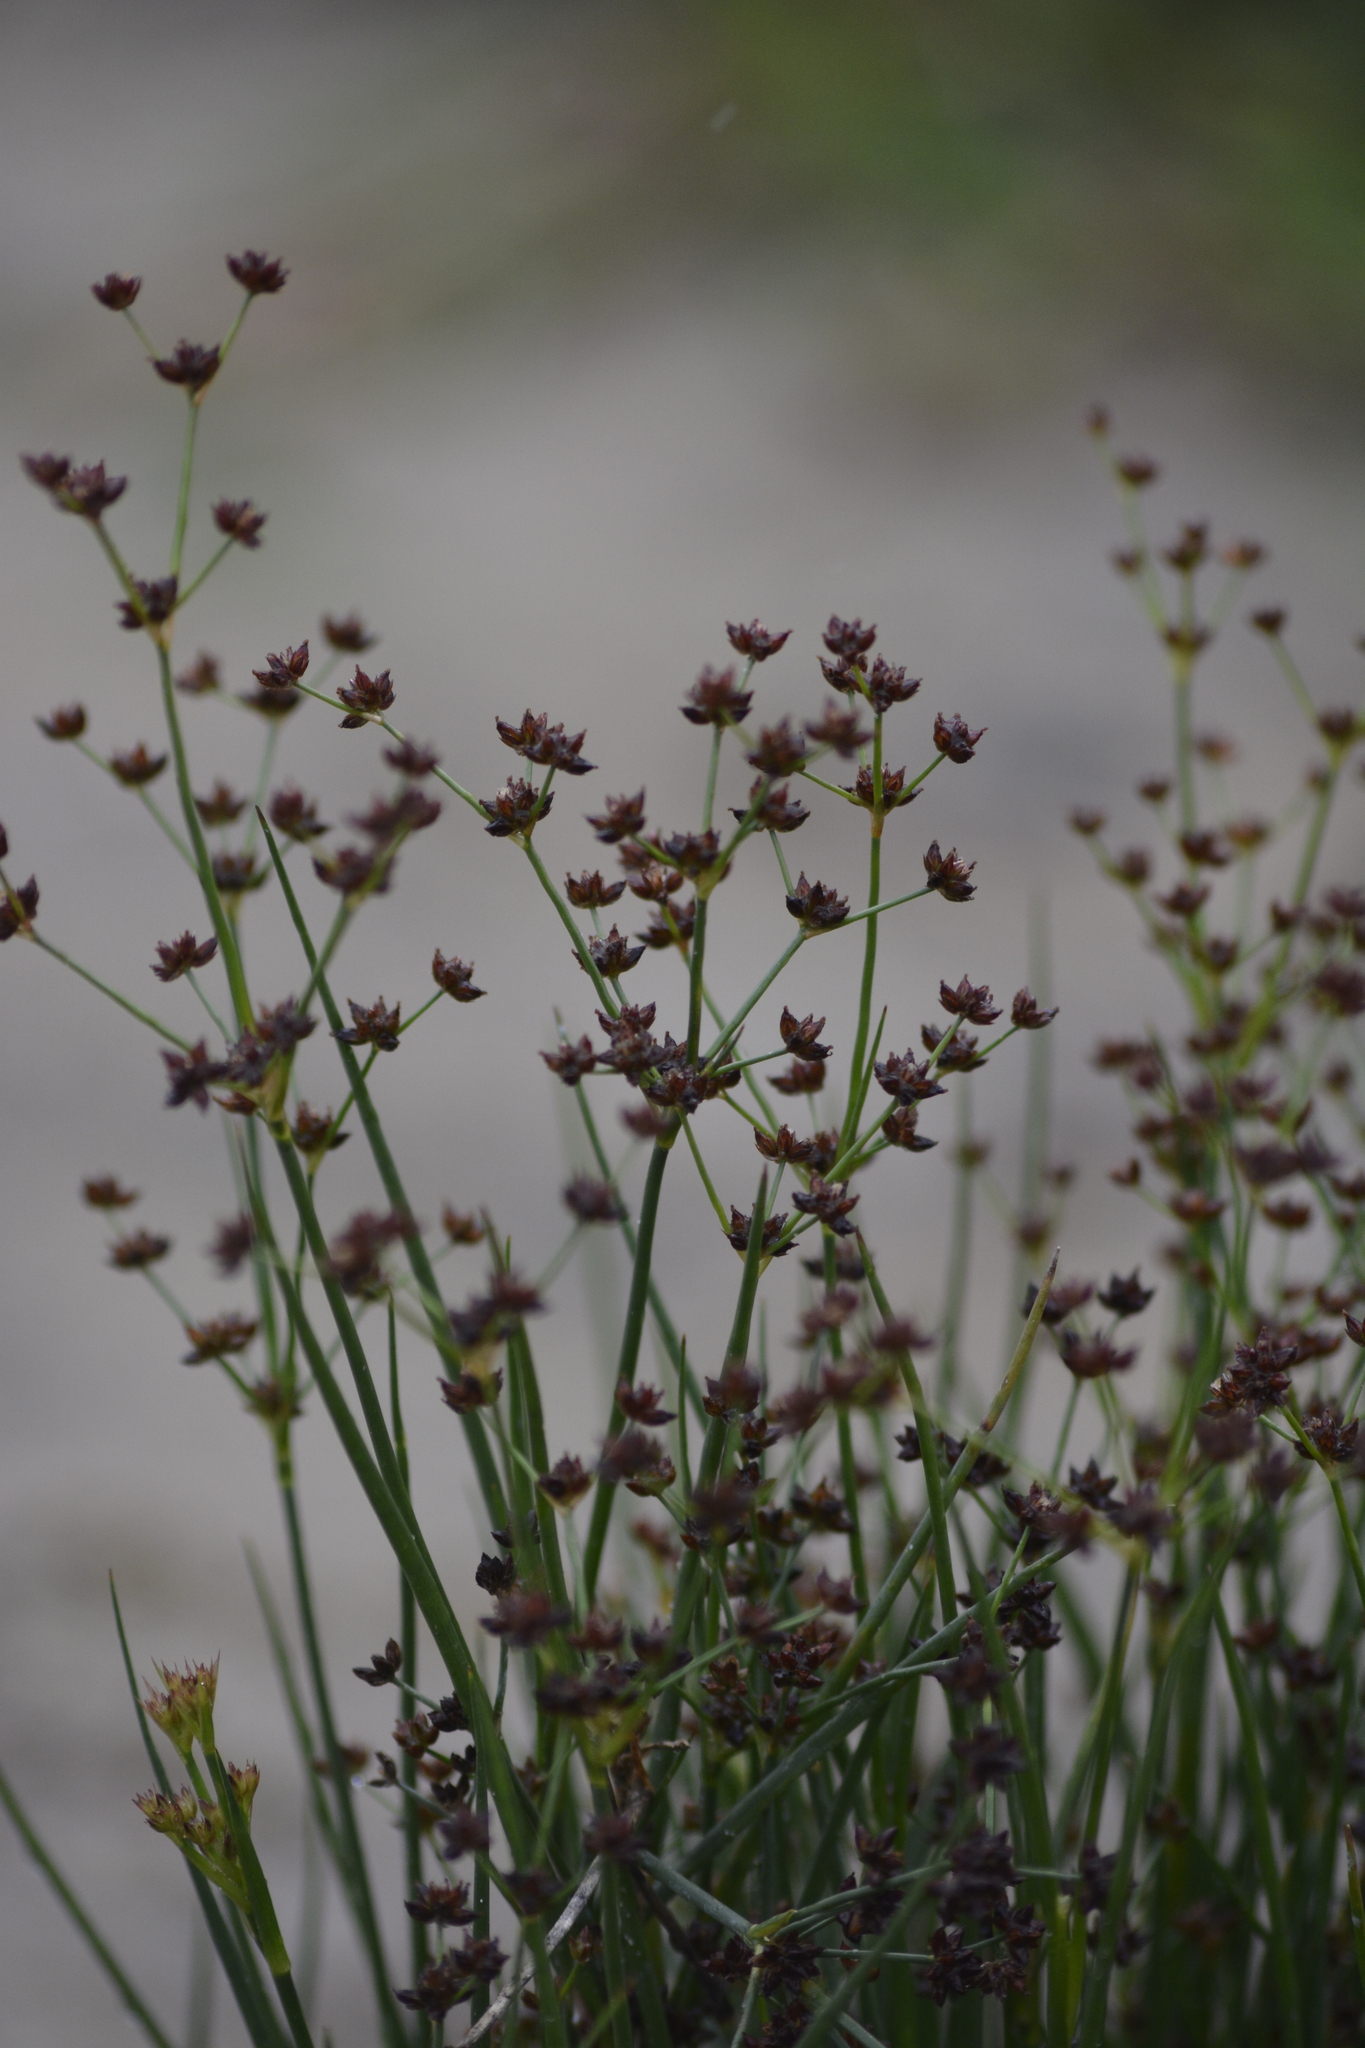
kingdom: Plantae
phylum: Tracheophyta
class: Liliopsida
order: Poales
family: Juncaceae
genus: Juncus
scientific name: Juncus articulatus
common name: Jointed rush
